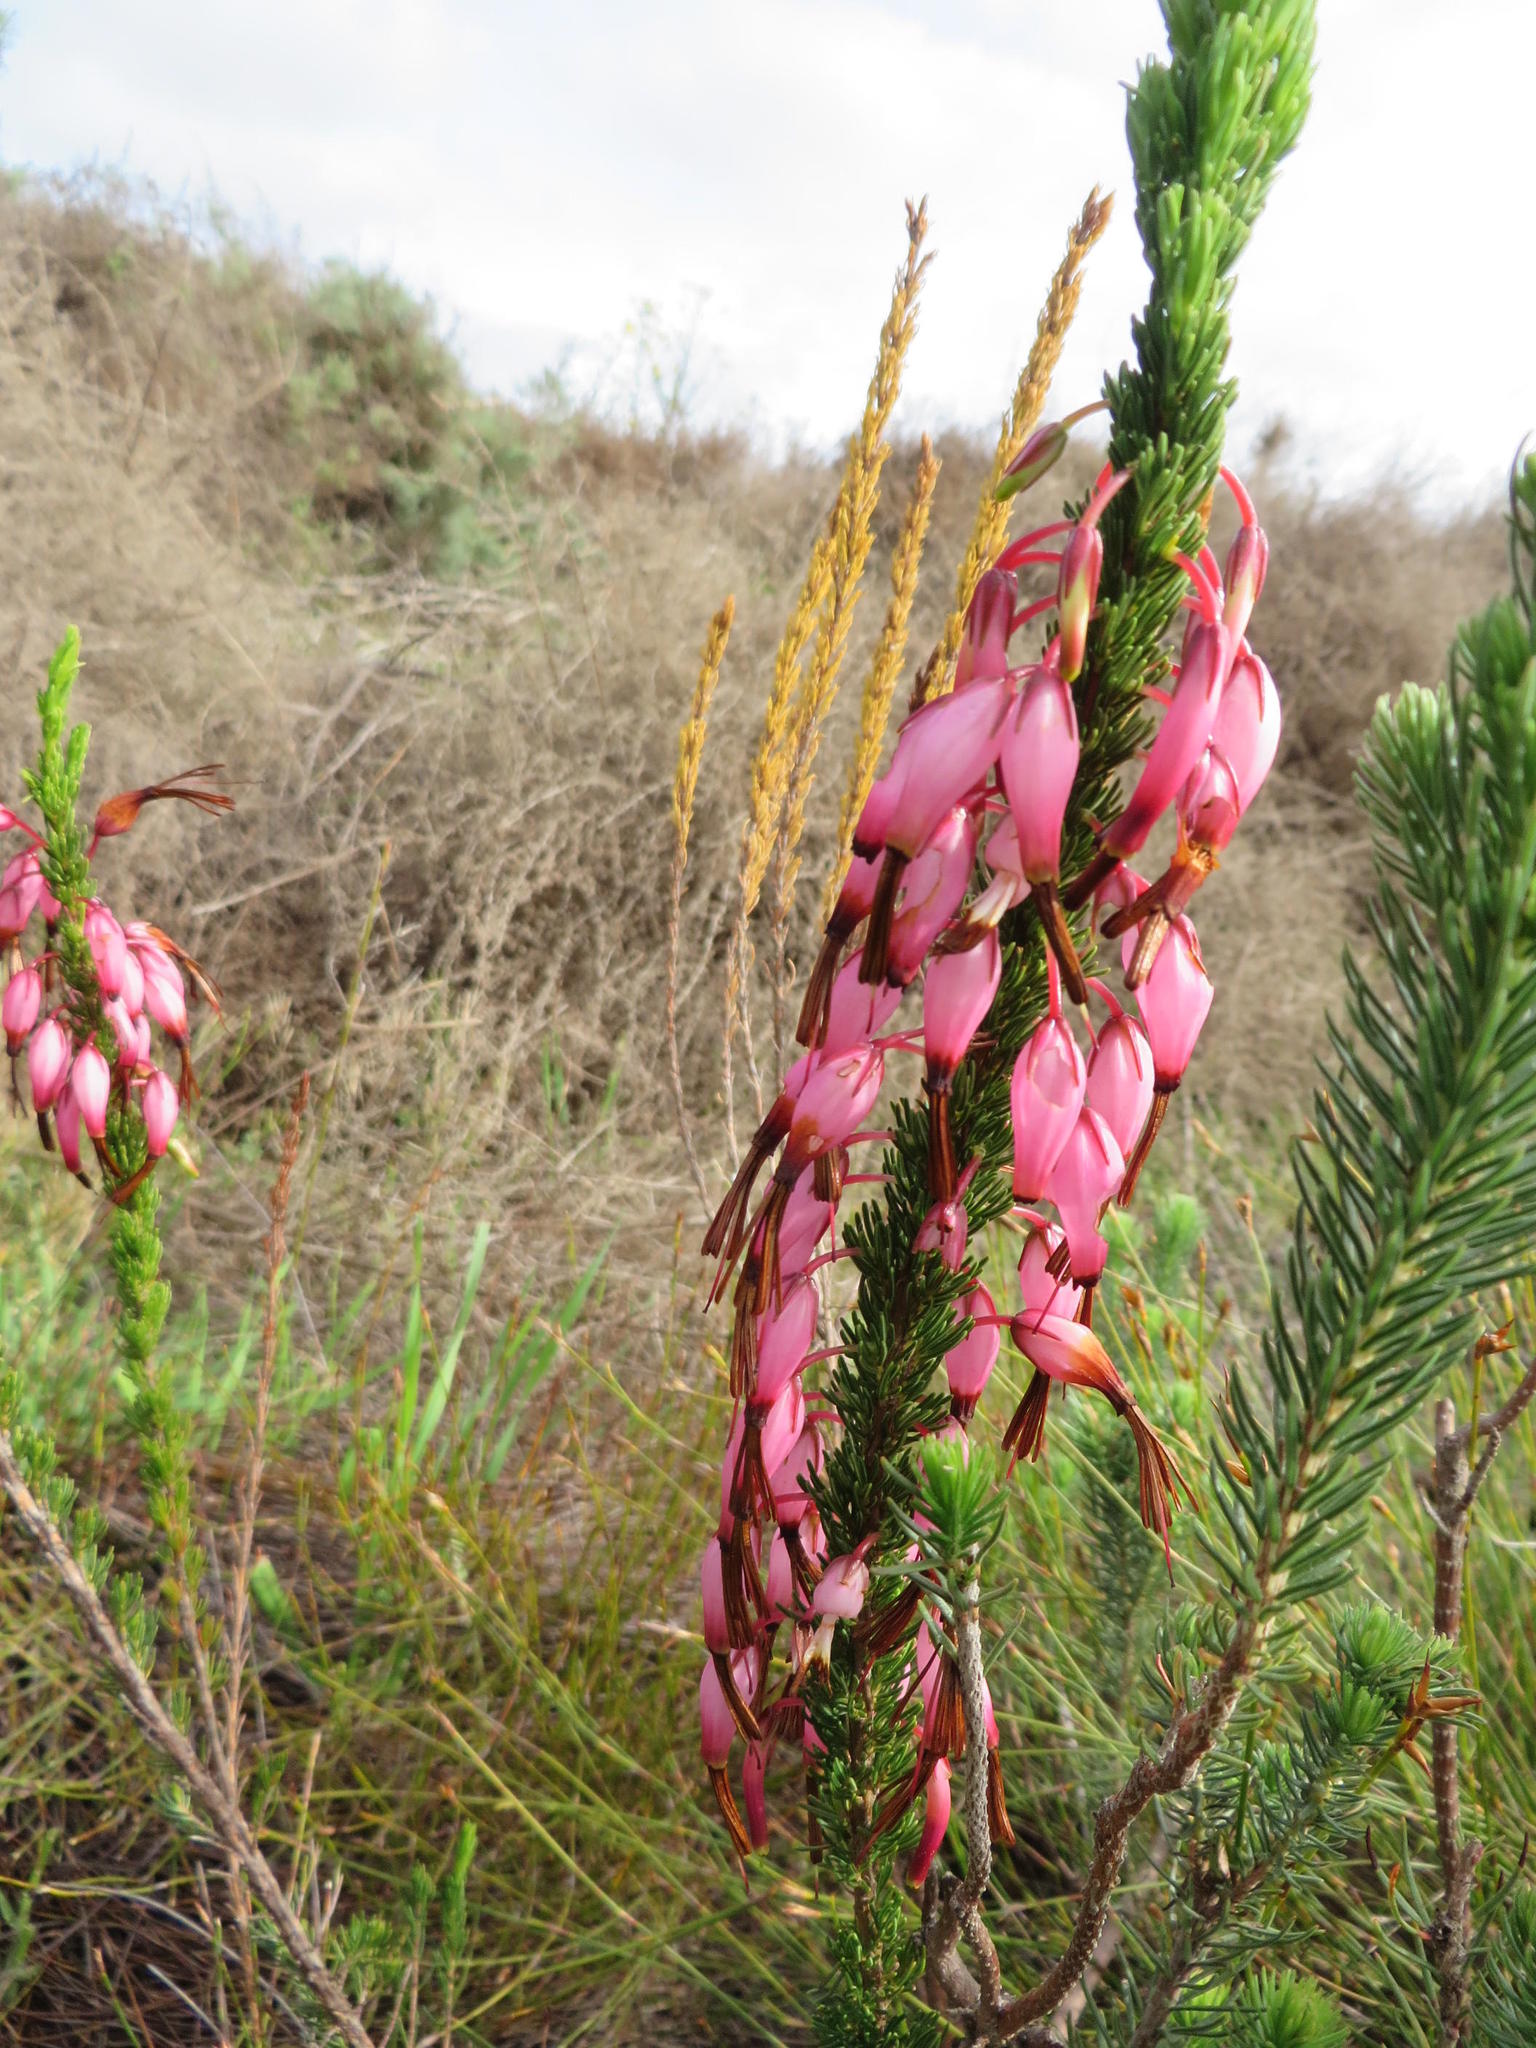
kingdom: Plantae
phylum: Tracheophyta
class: Magnoliopsida
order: Ericales
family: Ericaceae
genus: Erica
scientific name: Erica plukenetii
